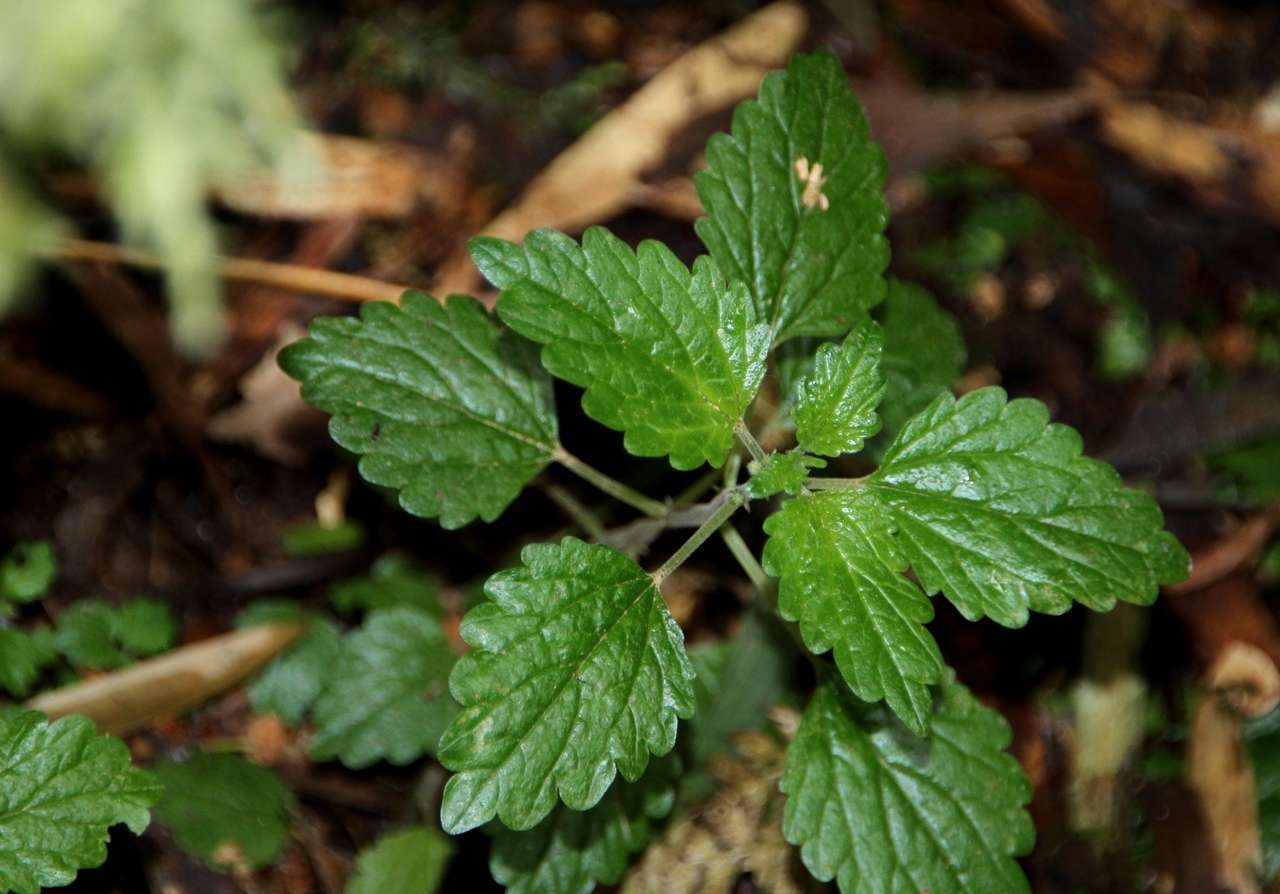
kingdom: Plantae
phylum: Tracheophyta
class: Magnoliopsida
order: Rosales
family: Urticaceae
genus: Australina
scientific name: Australina pusilla
